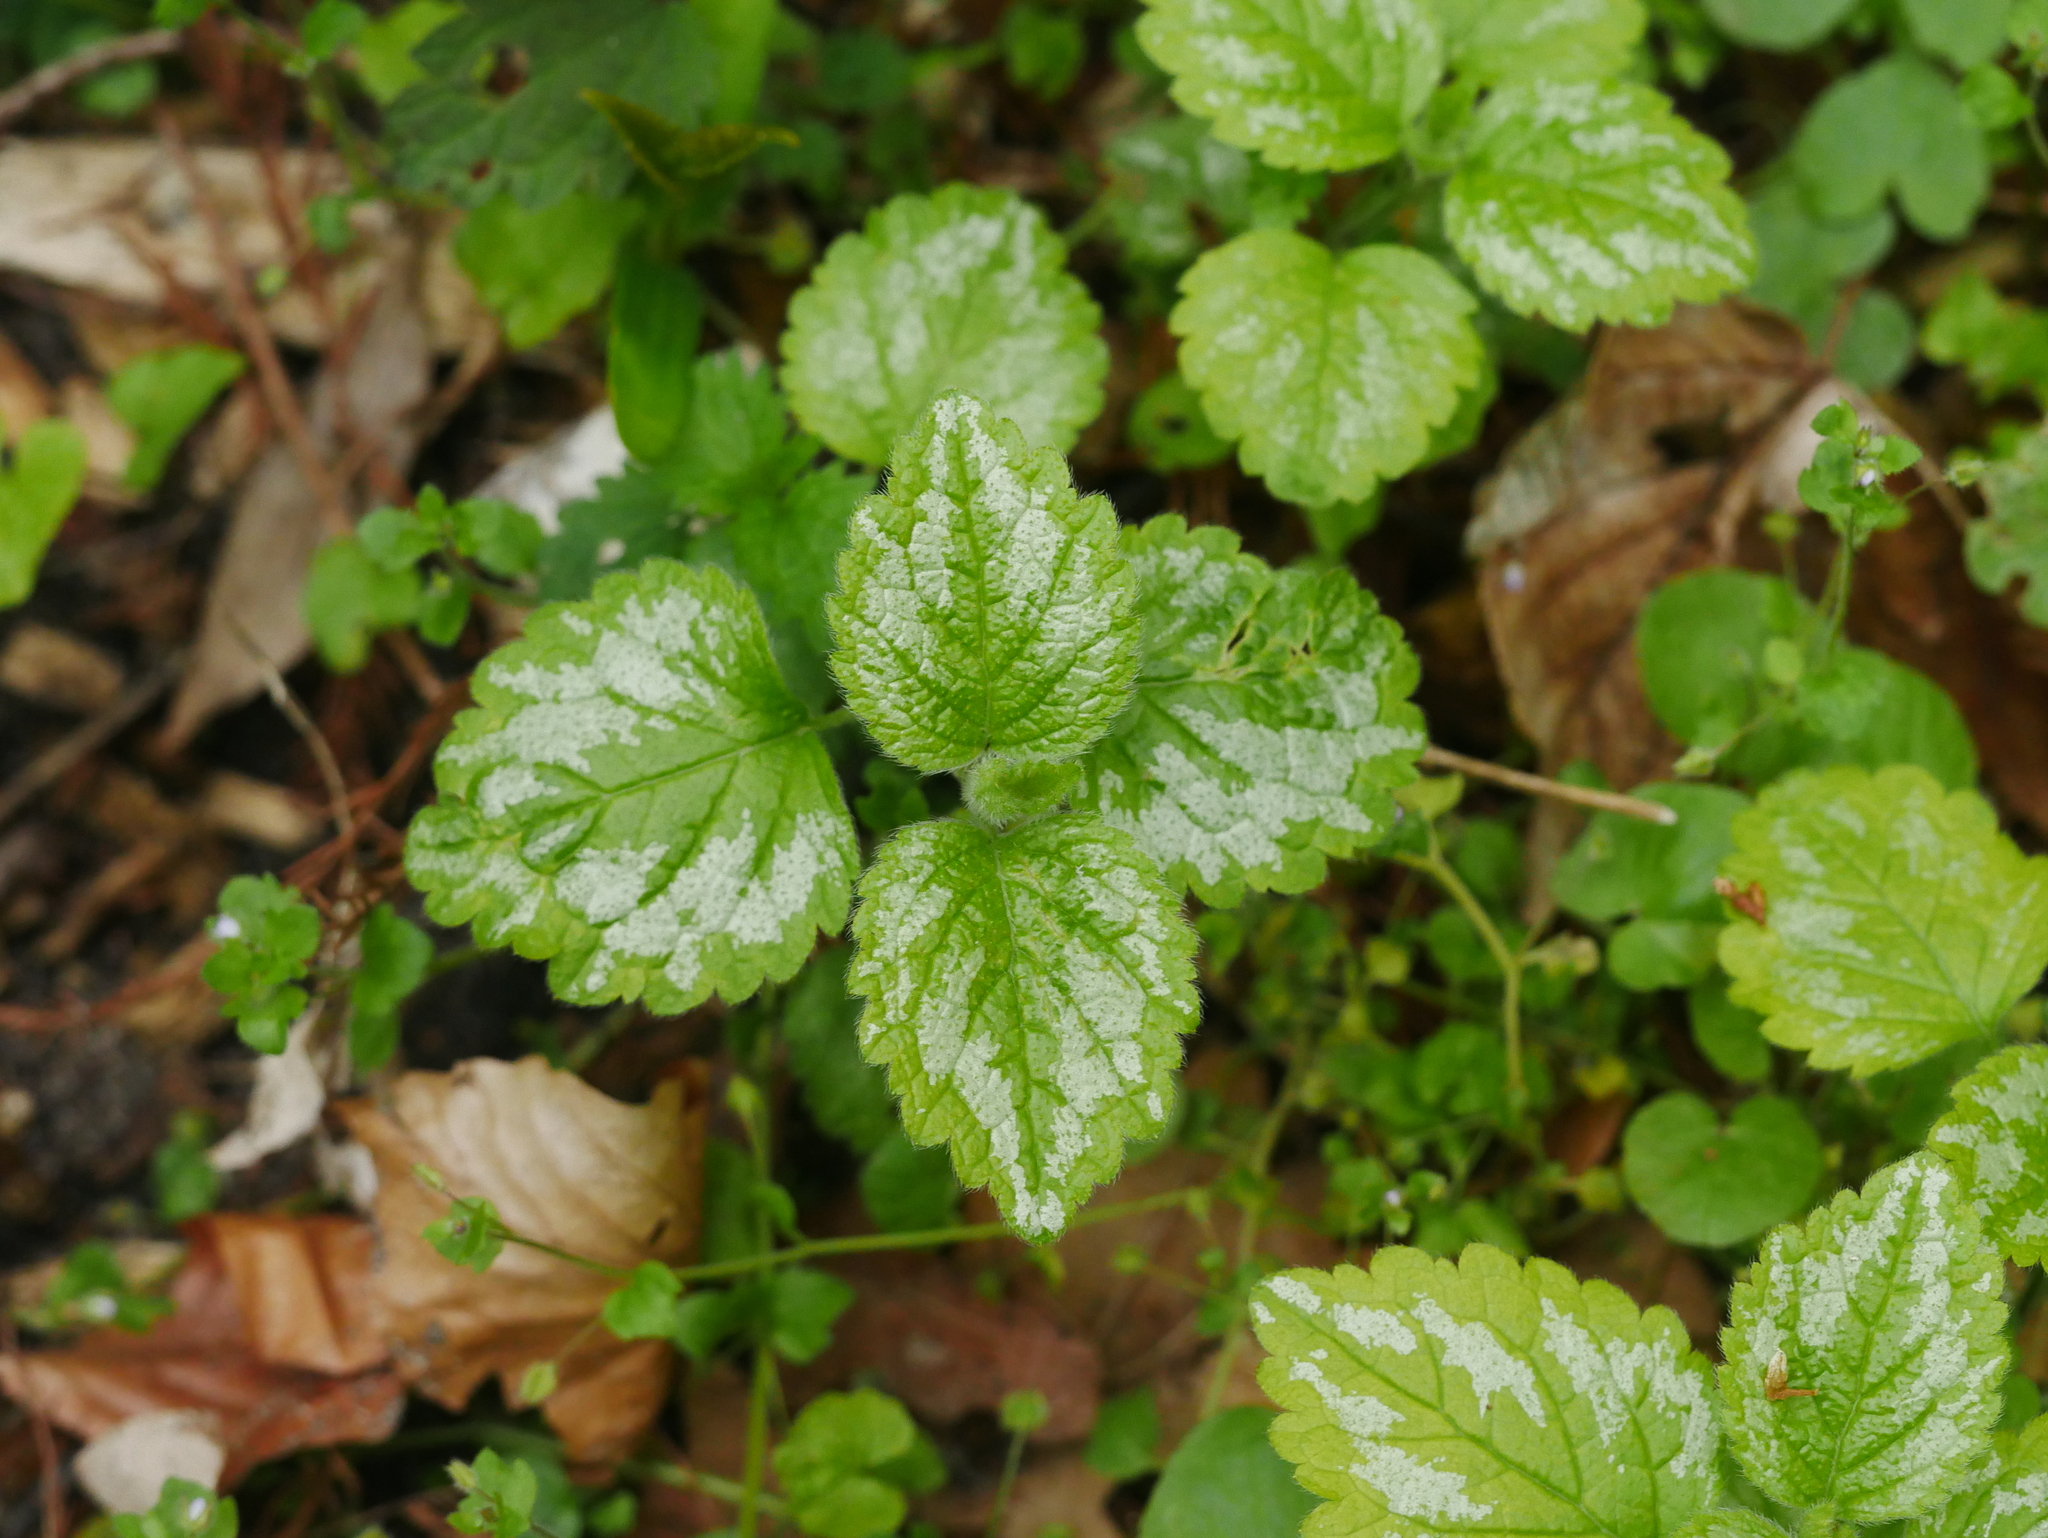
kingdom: Plantae
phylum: Tracheophyta
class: Magnoliopsida
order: Lamiales
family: Lamiaceae
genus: Lamium
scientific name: Lamium galeobdolon
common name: Yellow archangel
